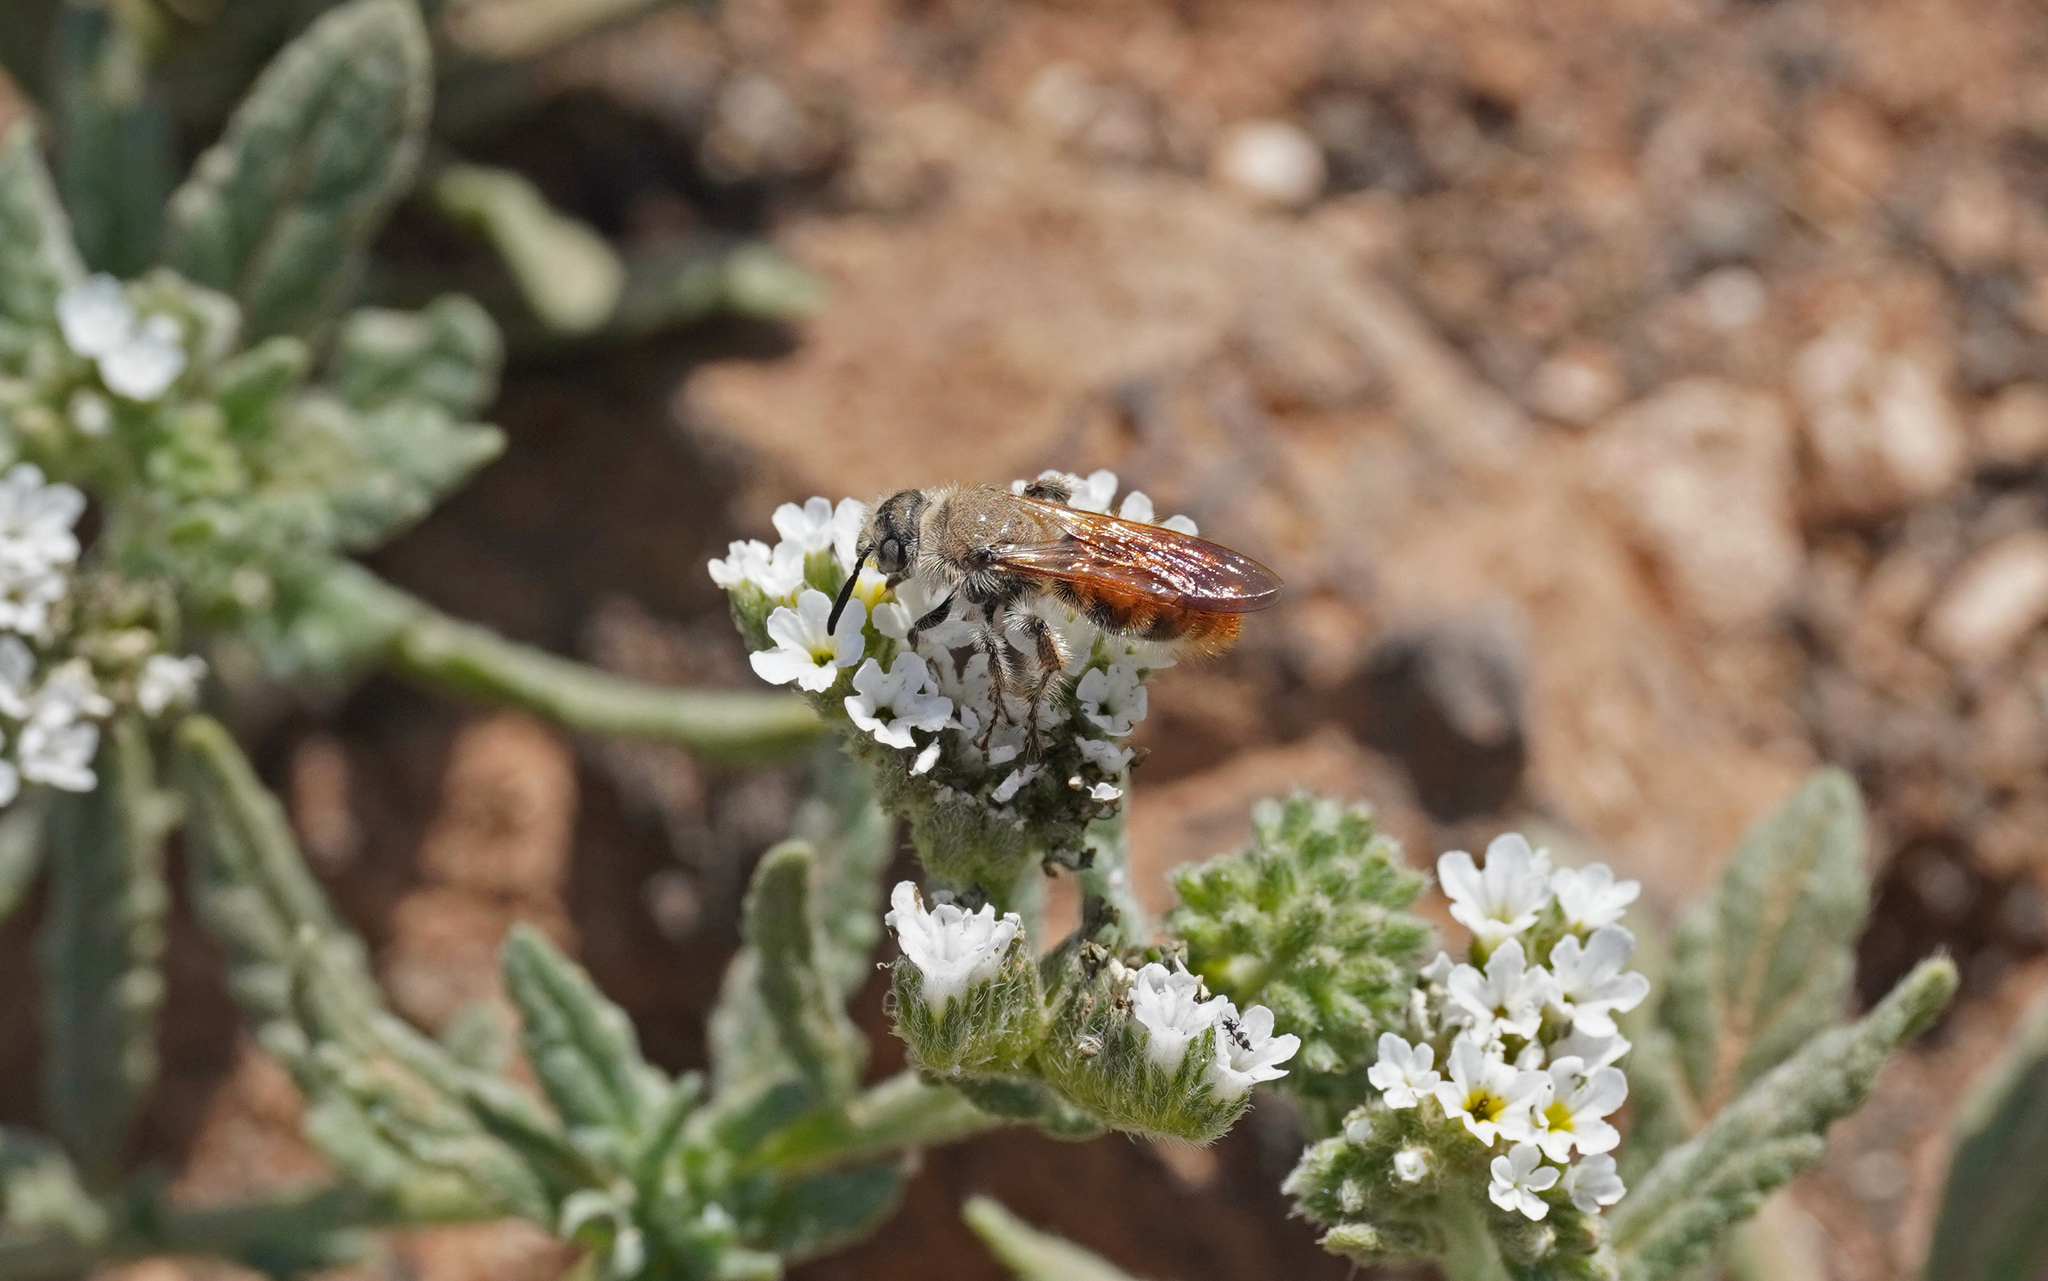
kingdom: Animalia
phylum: Arthropoda
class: Insecta
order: Hymenoptera
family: Scoliidae
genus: Micromeriella
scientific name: Micromeriella aureola
